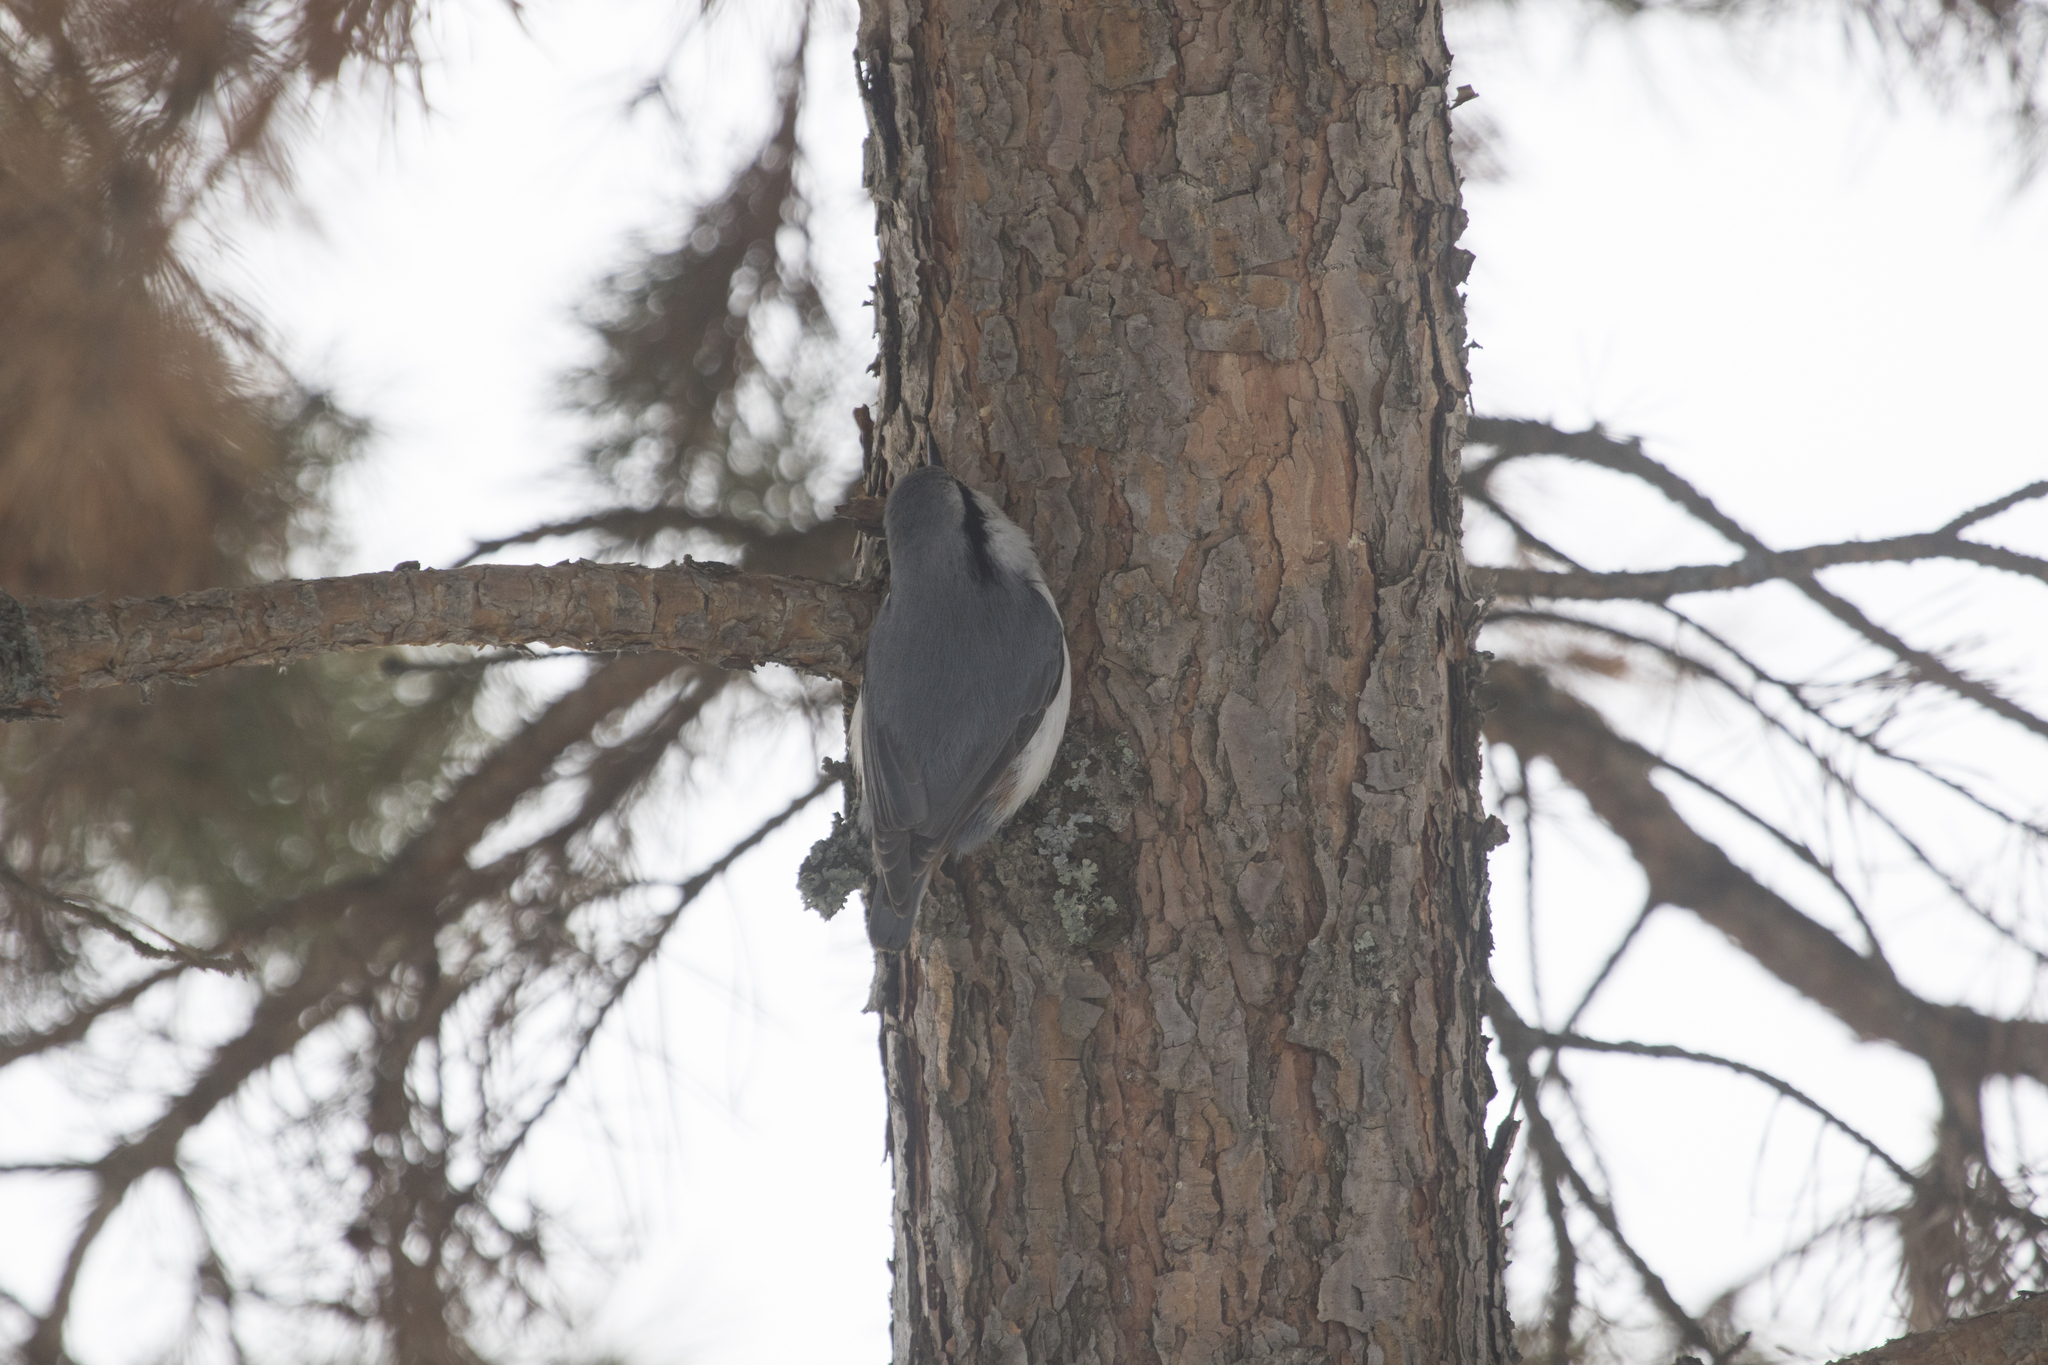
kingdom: Animalia
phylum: Chordata
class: Aves
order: Passeriformes
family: Sittidae
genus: Sitta
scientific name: Sitta europaea
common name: Eurasian nuthatch
